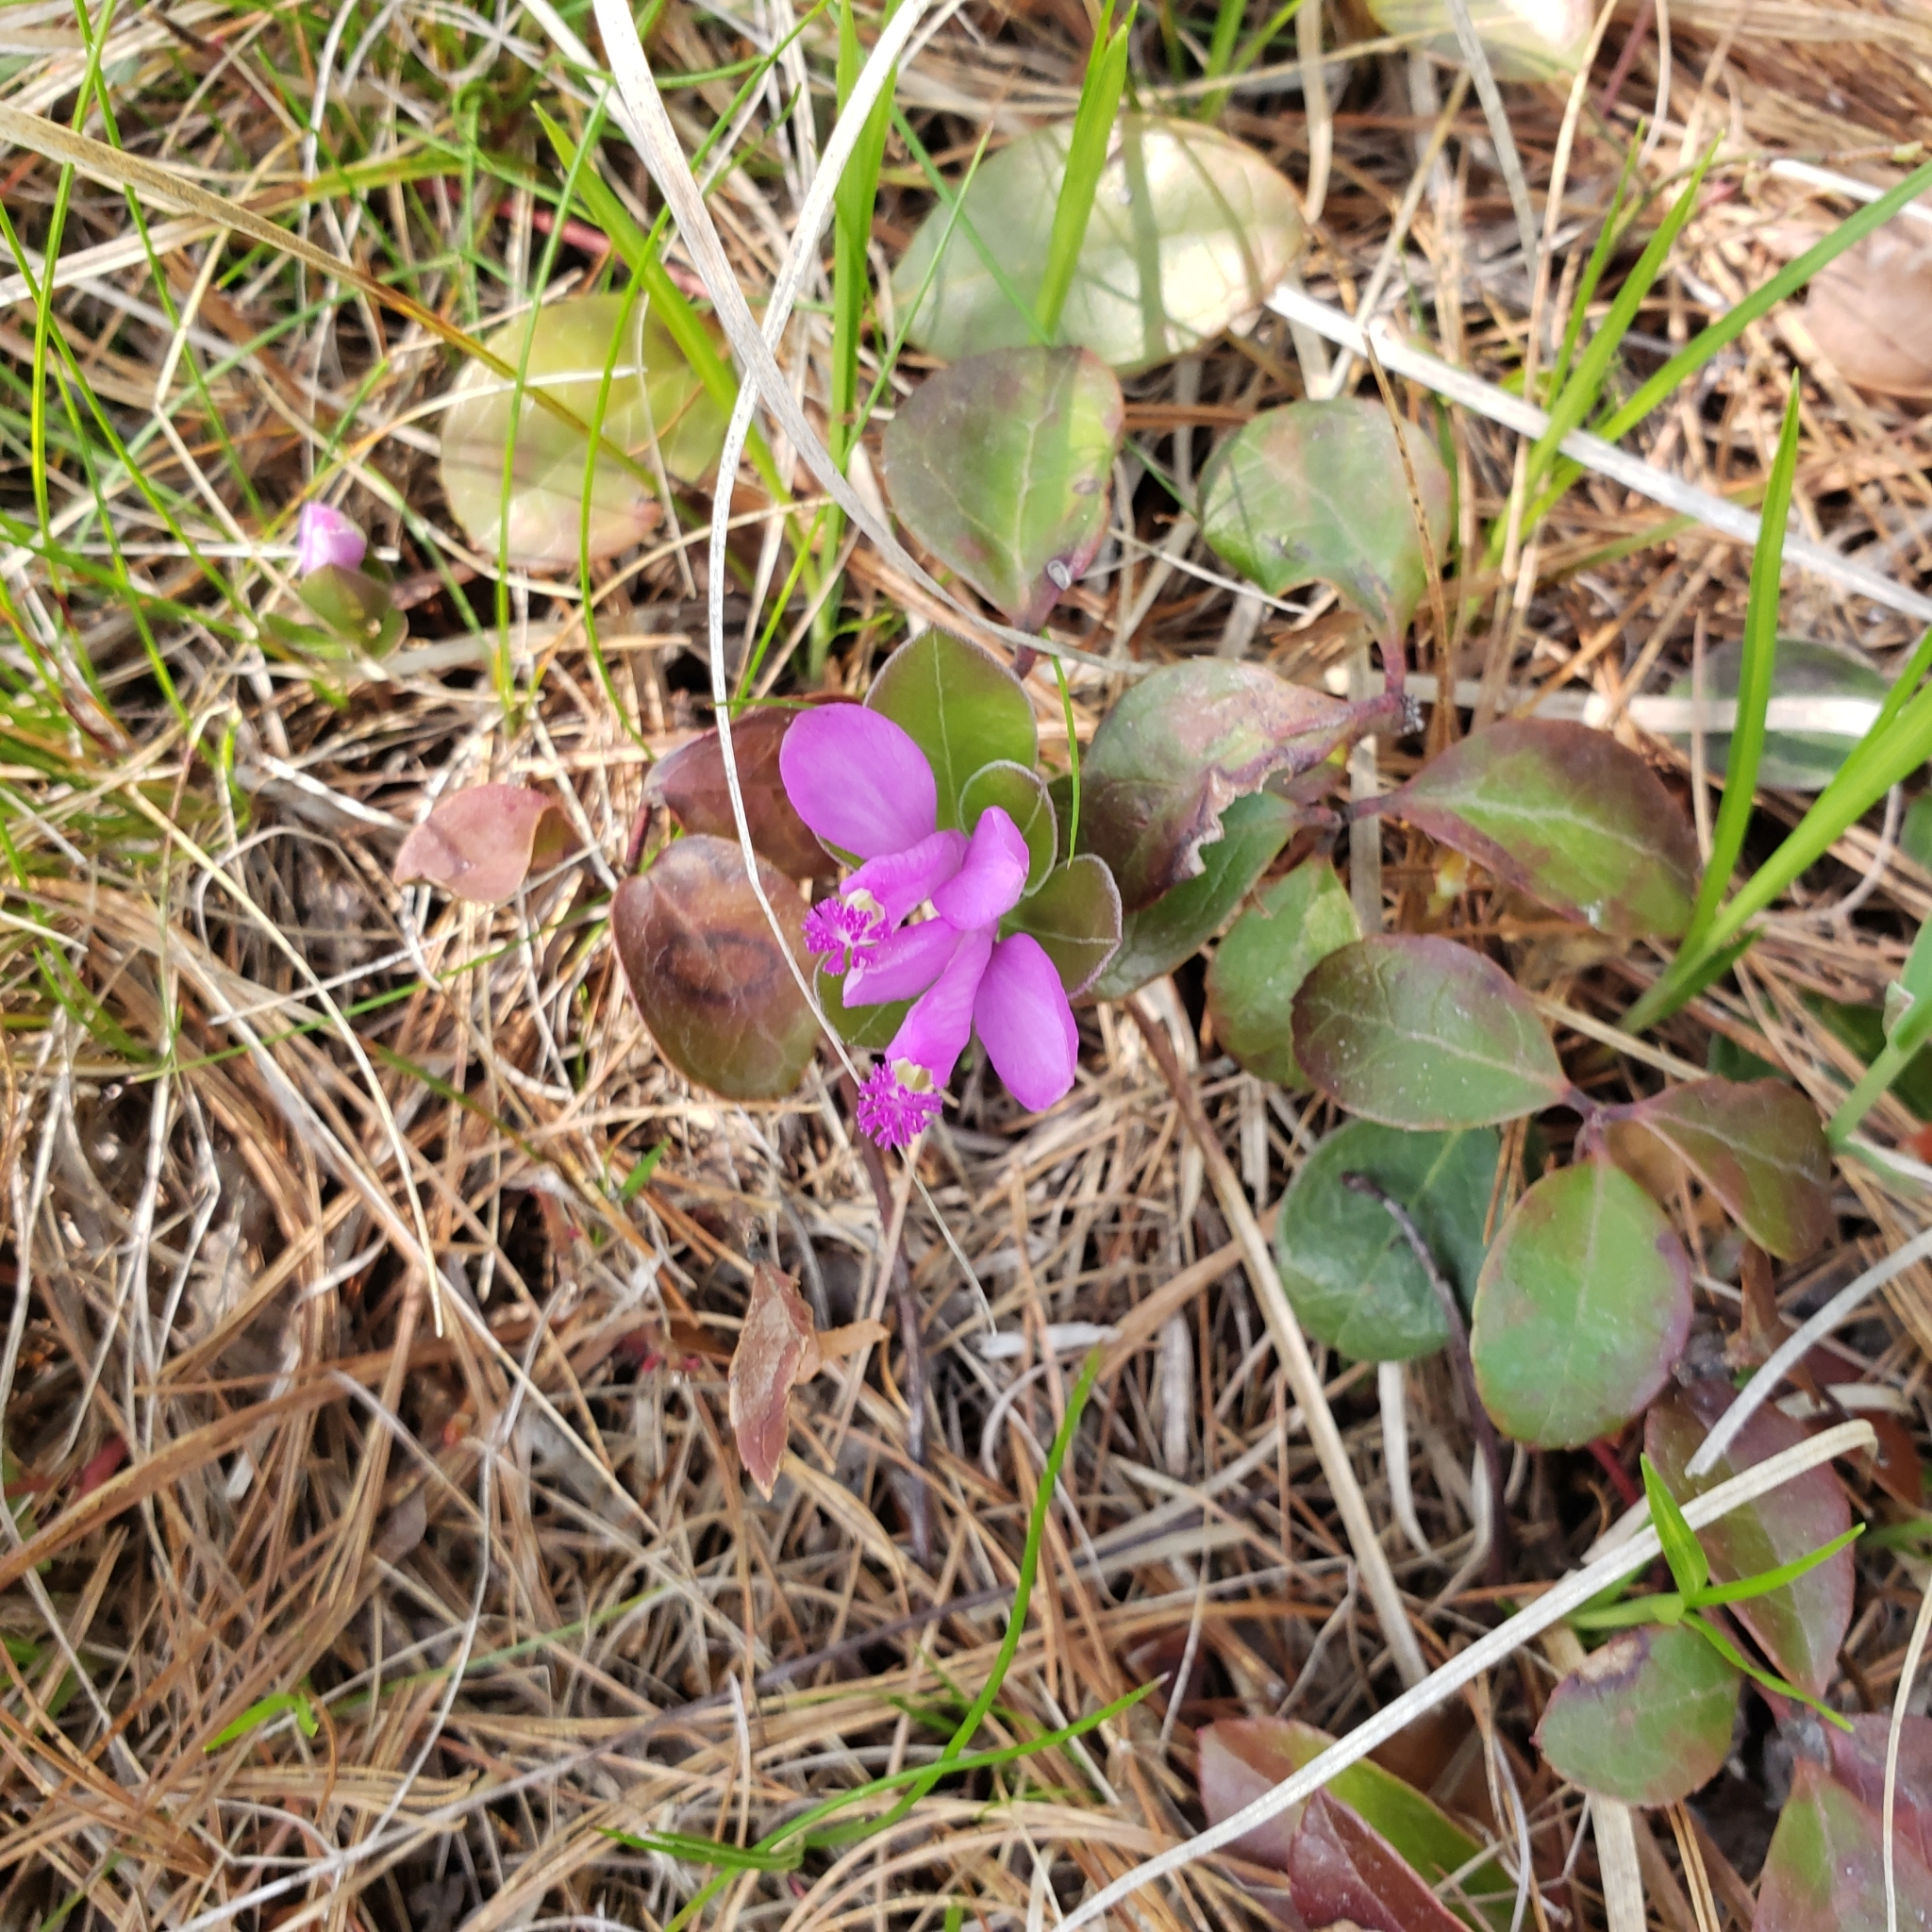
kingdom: Plantae
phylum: Tracheophyta
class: Magnoliopsida
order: Fabales
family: Polygalaceae
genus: Polygaloides
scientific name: Polygaloides paucifolia
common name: Bird-on-the-wing
